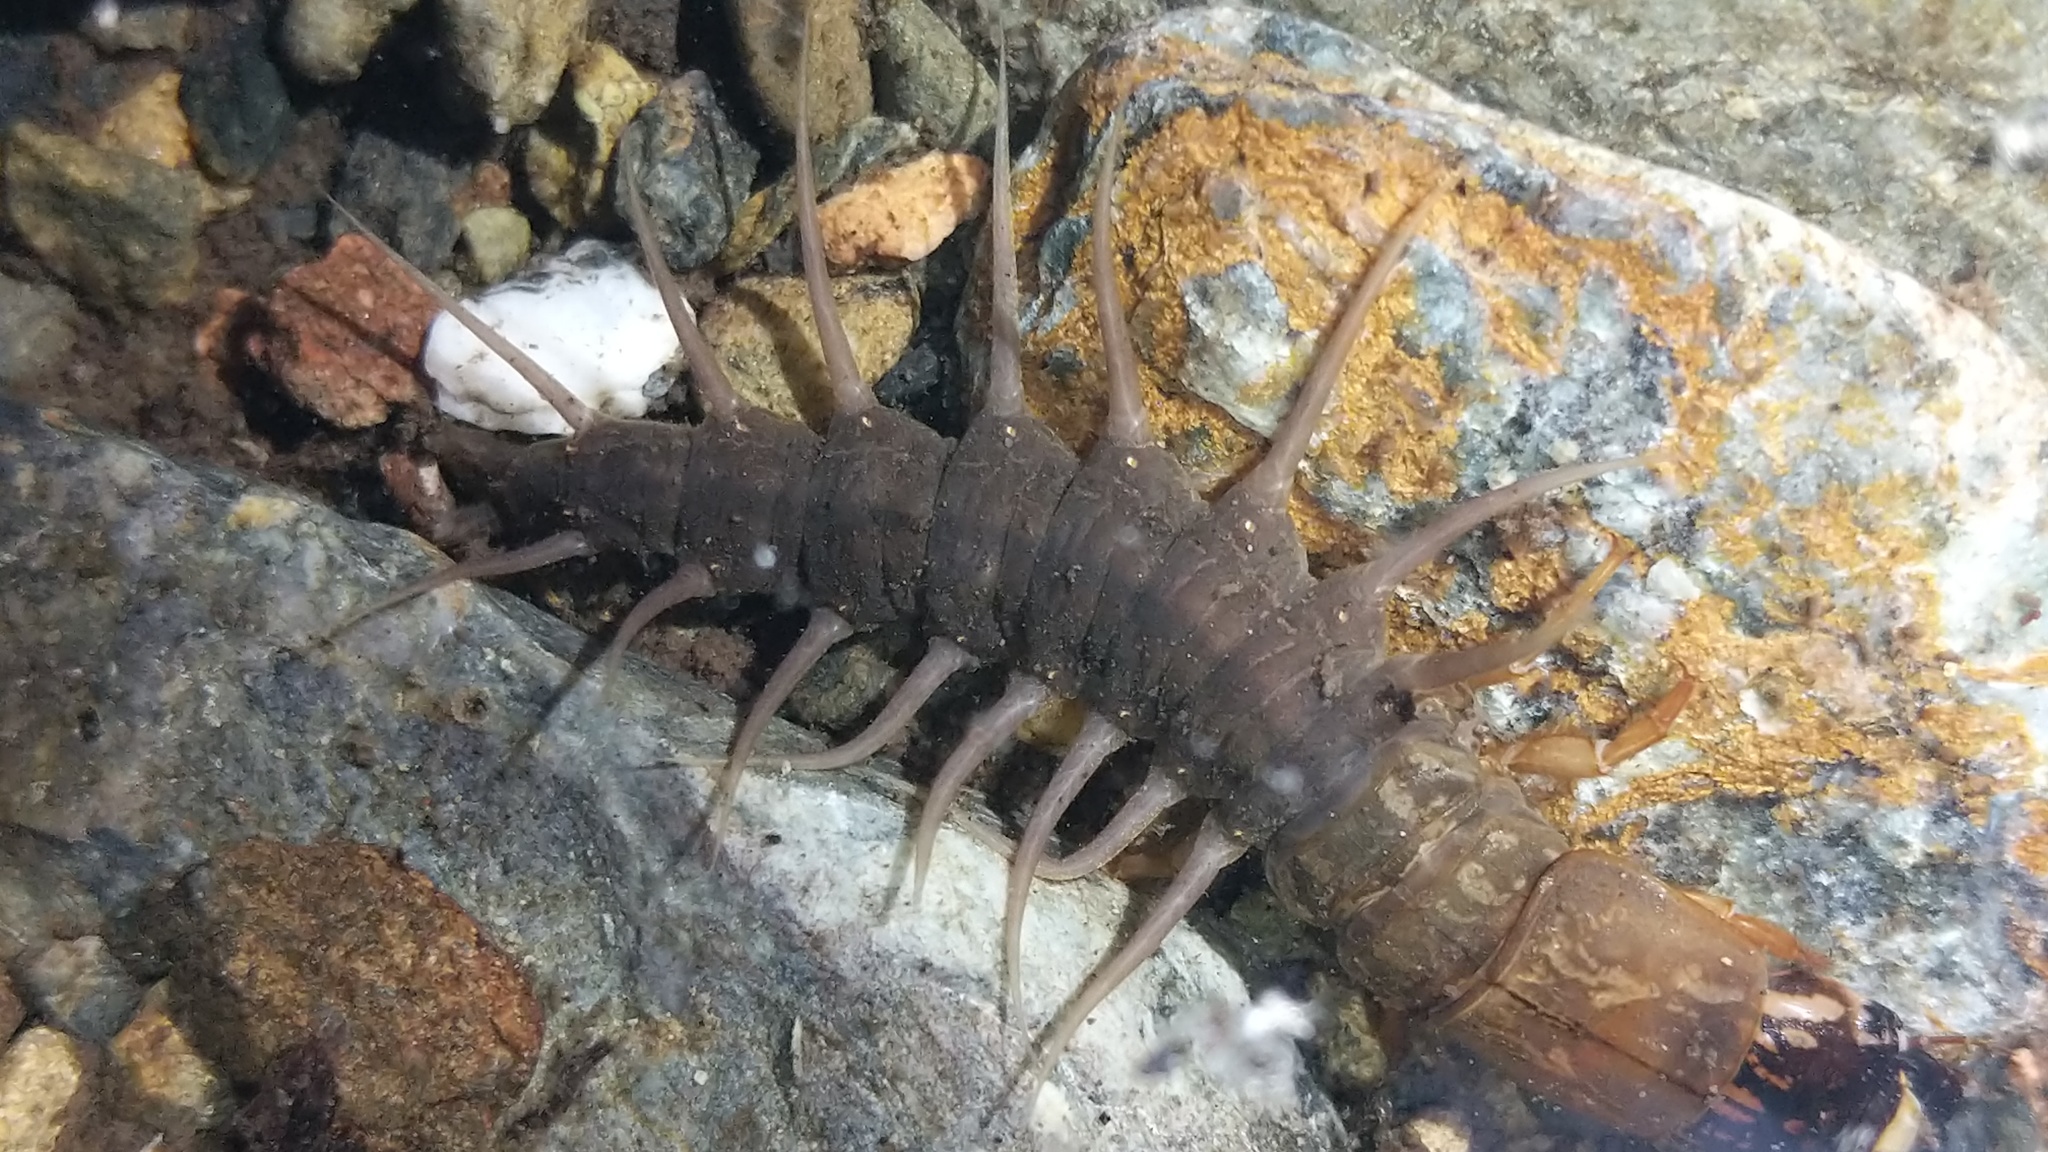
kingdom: Animalia
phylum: Arthropoda
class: Insecta
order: Megaloptera
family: Corydalidae
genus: Neohermes
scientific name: Neohermes filicornis
